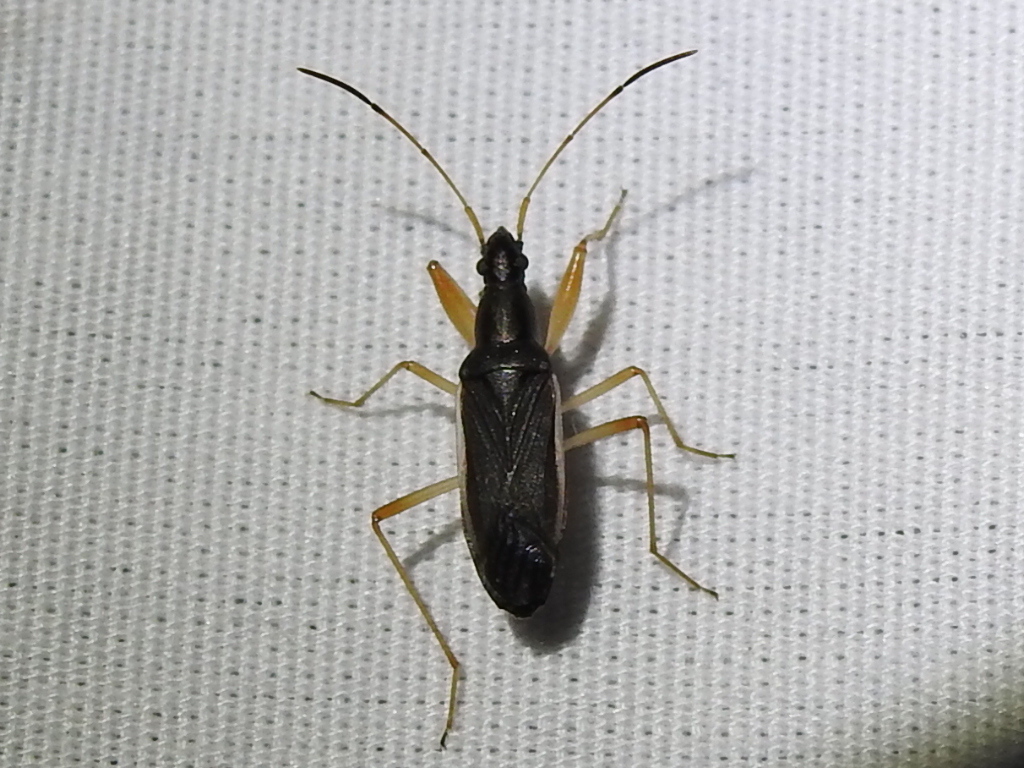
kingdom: Animalia
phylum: Arthropoda
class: Insecta
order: Hemiptera
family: Rhyparochromidae
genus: Cnemodus
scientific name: Cnemodus mavortius
